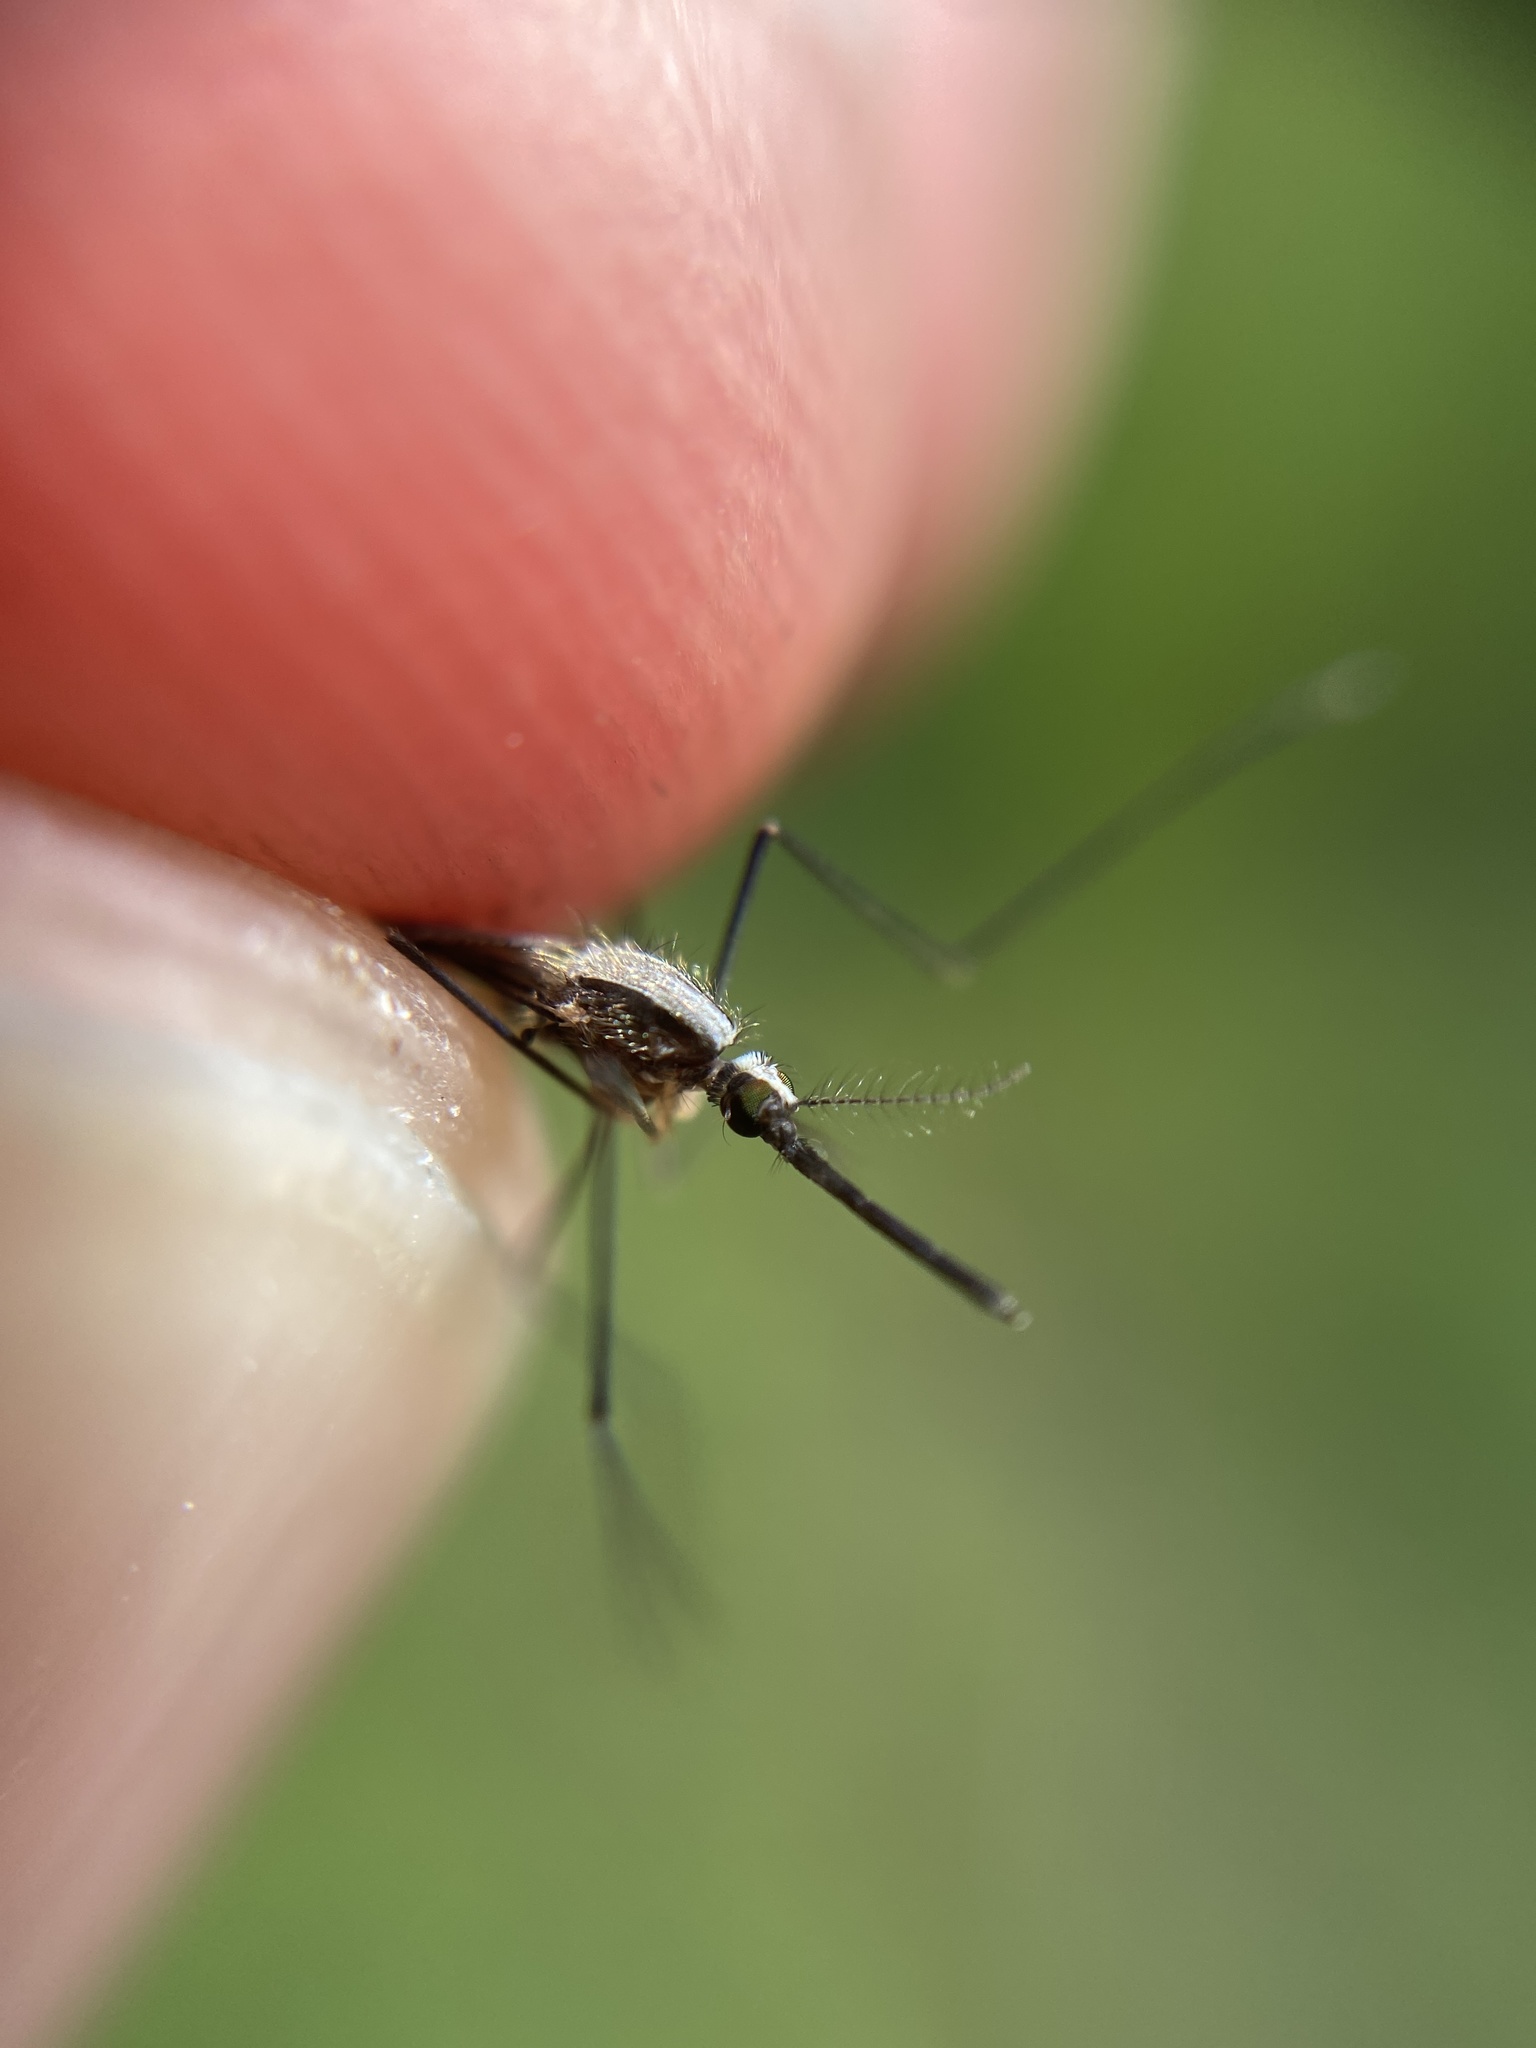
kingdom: Animalia
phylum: Arthropoda
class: Insecta
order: Diptera
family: Culicidae
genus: Anopheles
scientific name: Anopheles plumbeus
